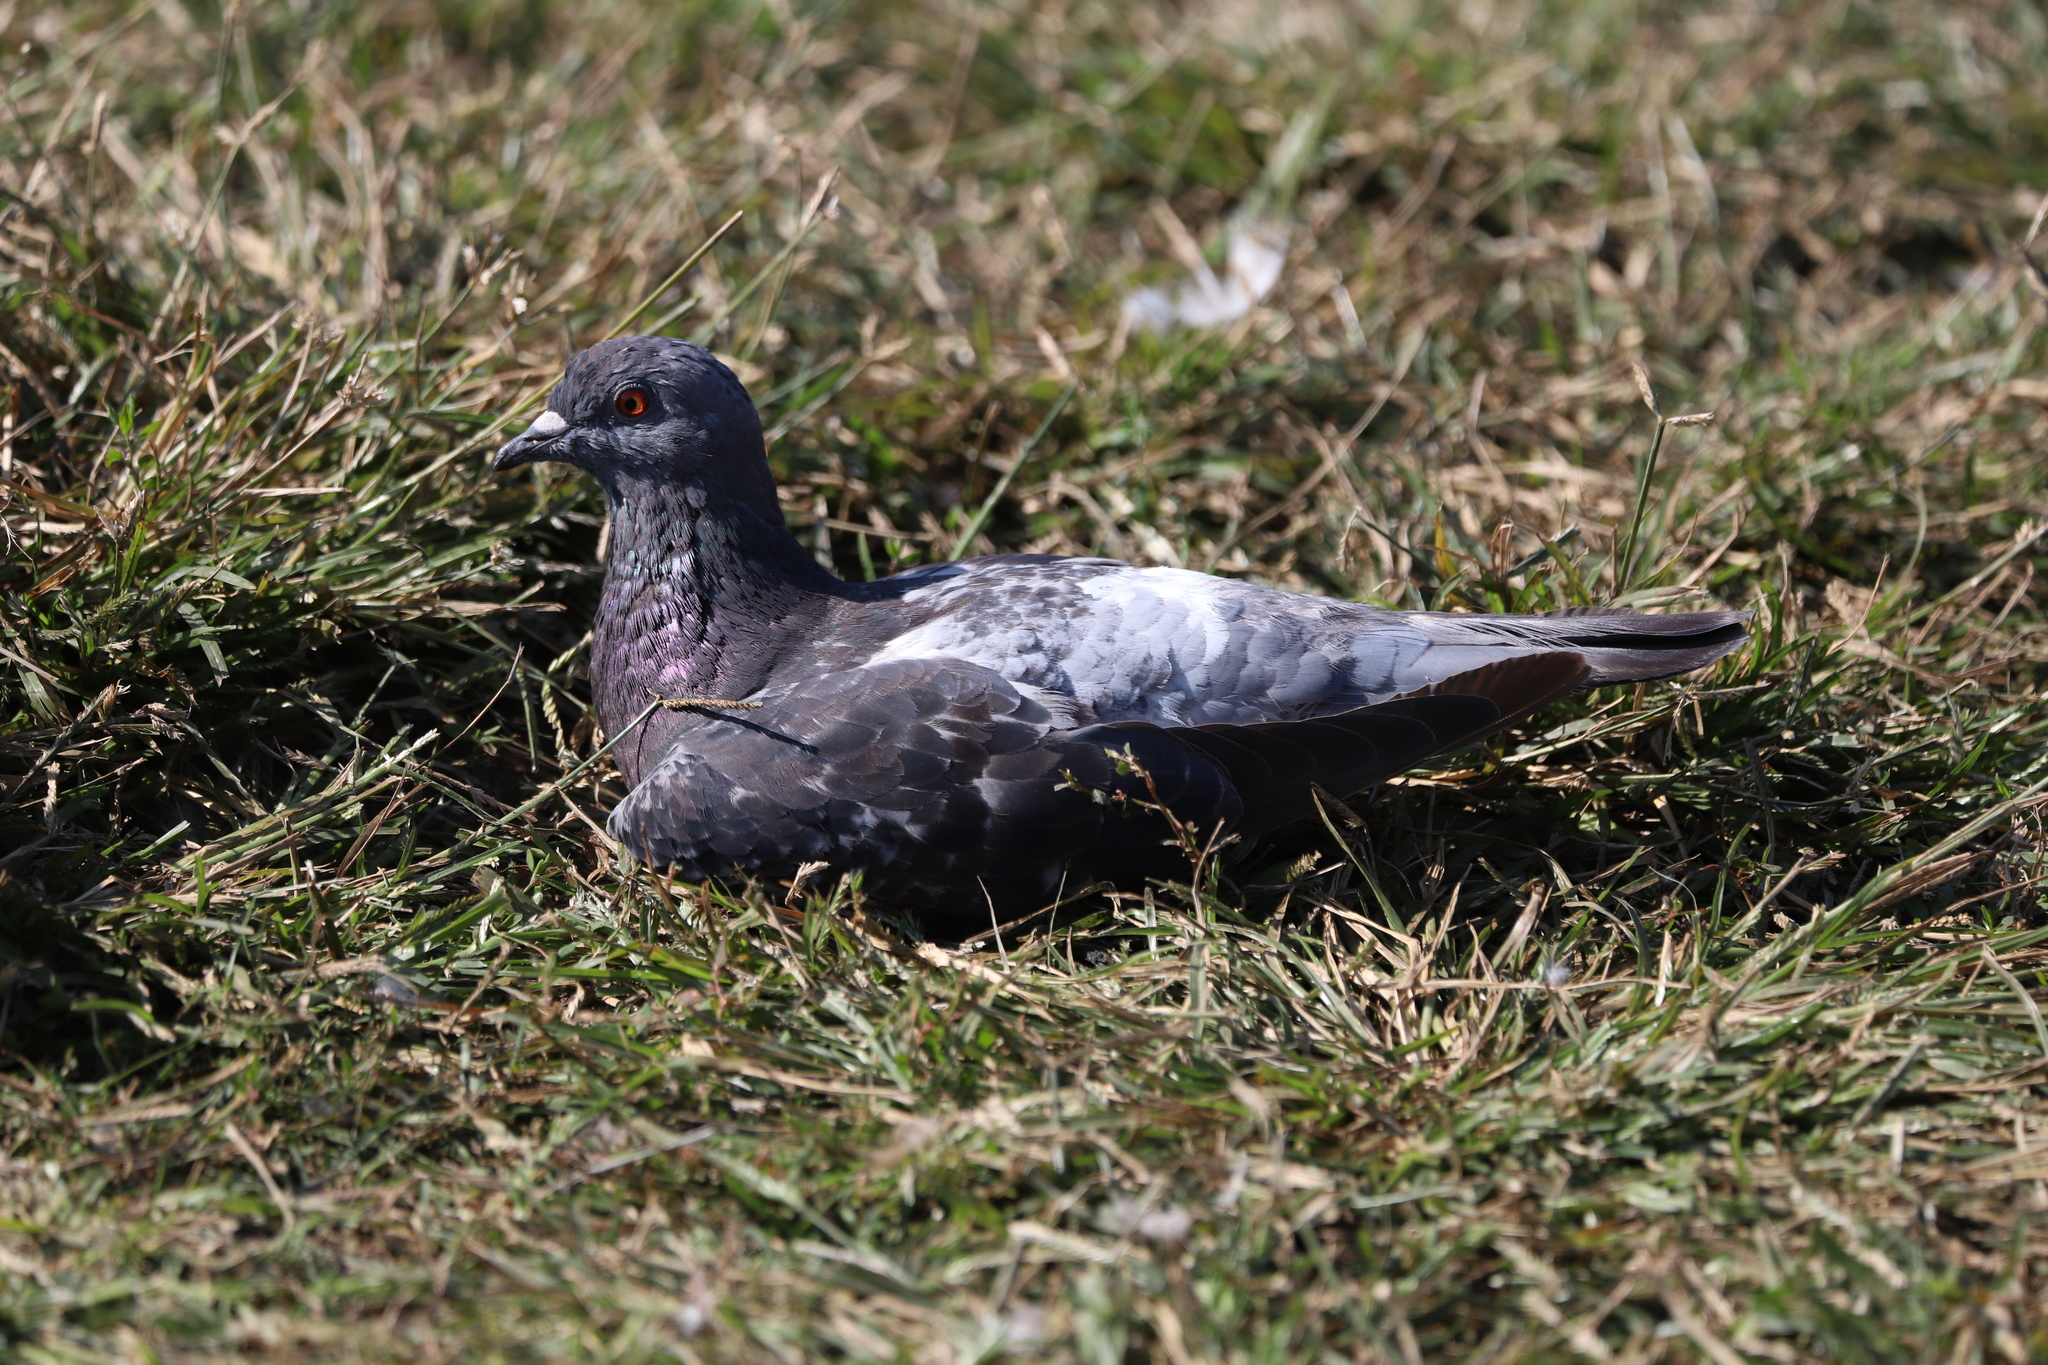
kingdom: Animalia
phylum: Chordata
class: Aves
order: Columbiformes
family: Columbidae
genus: Columba
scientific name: Columba livia
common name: Rock pigeon
